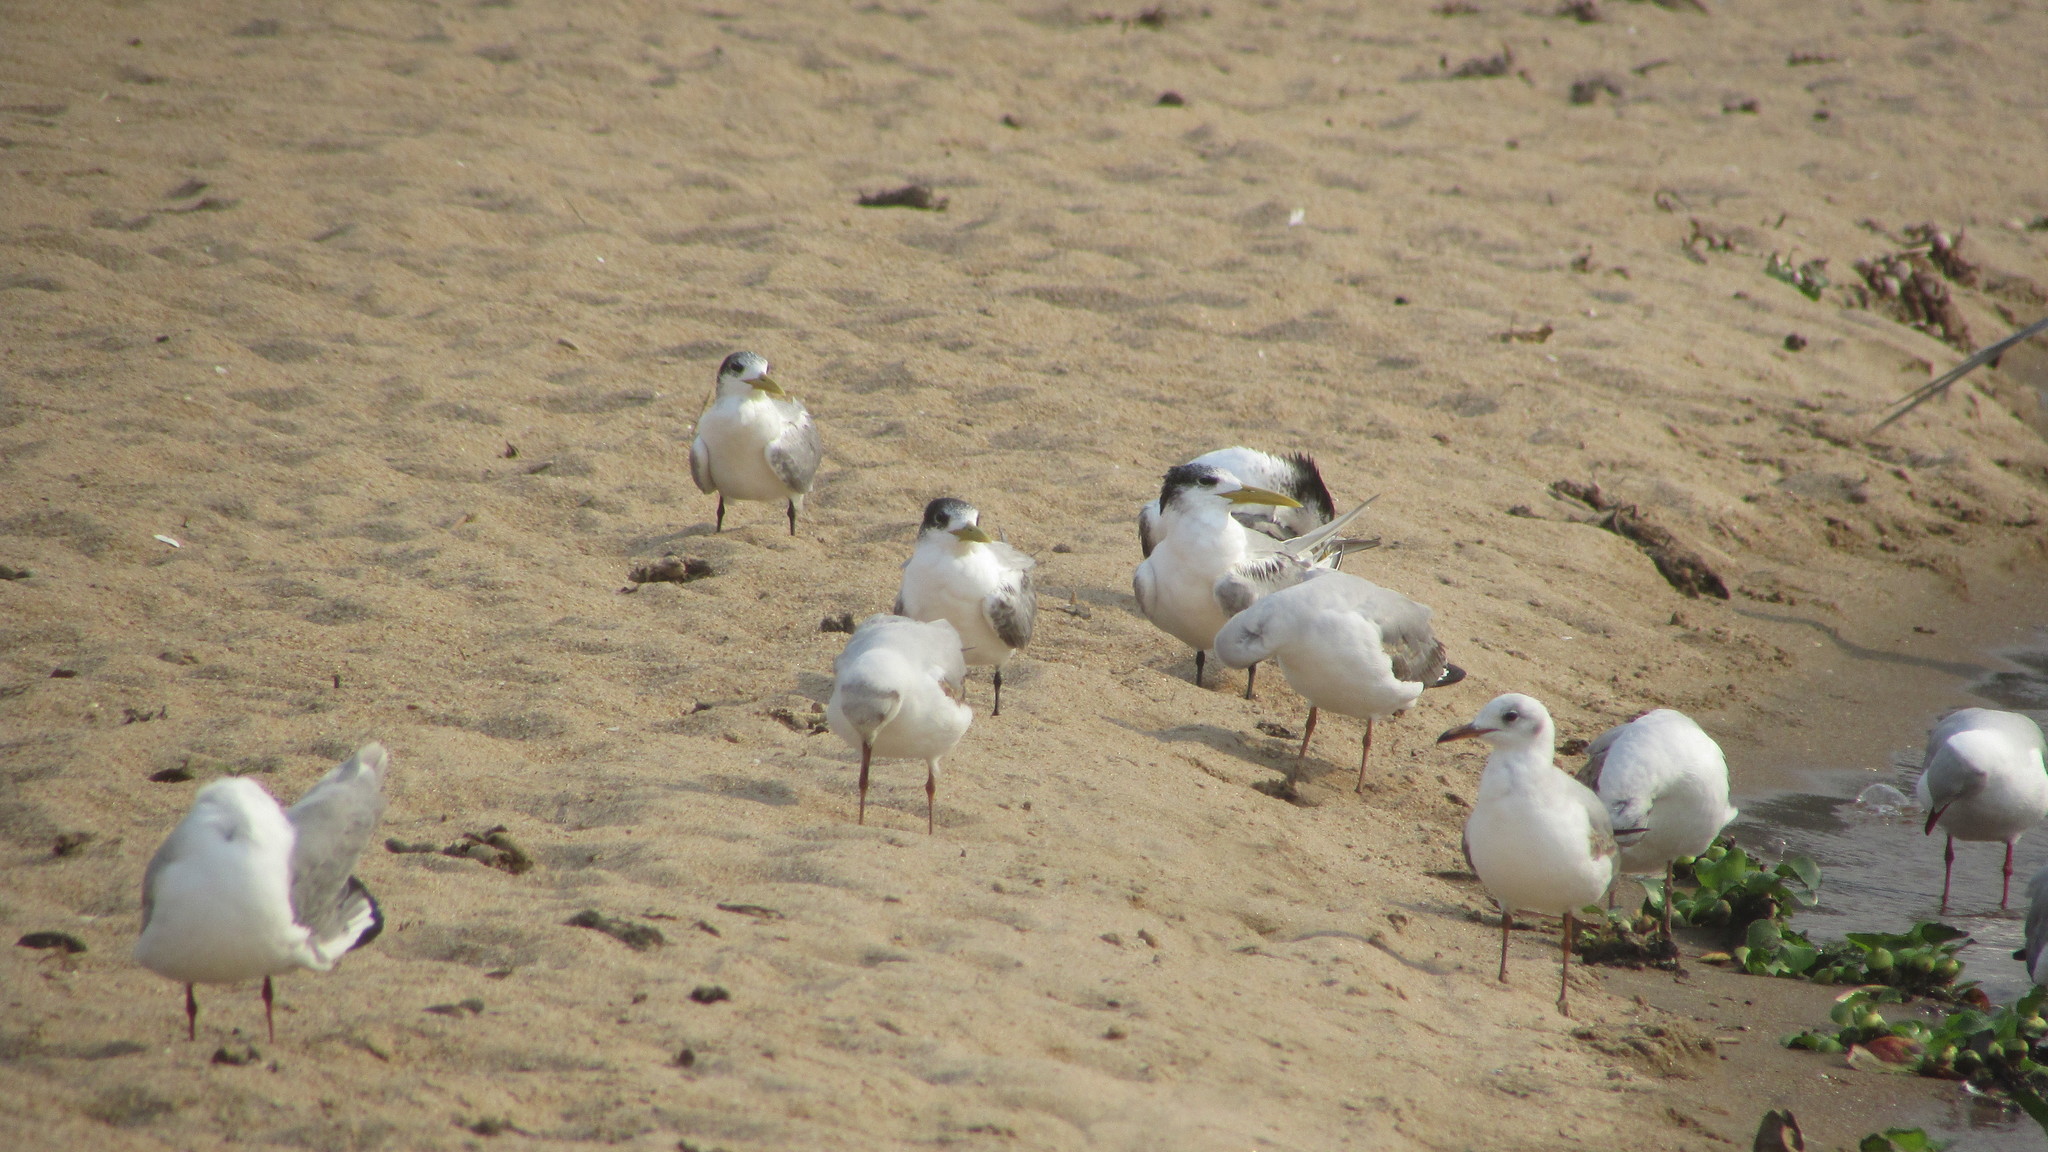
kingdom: Animalia
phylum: Chordata
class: Aves
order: Charadriiformes
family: Laridae
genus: Thalasseus
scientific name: Thalasseus bergii
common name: Greater crested tern
